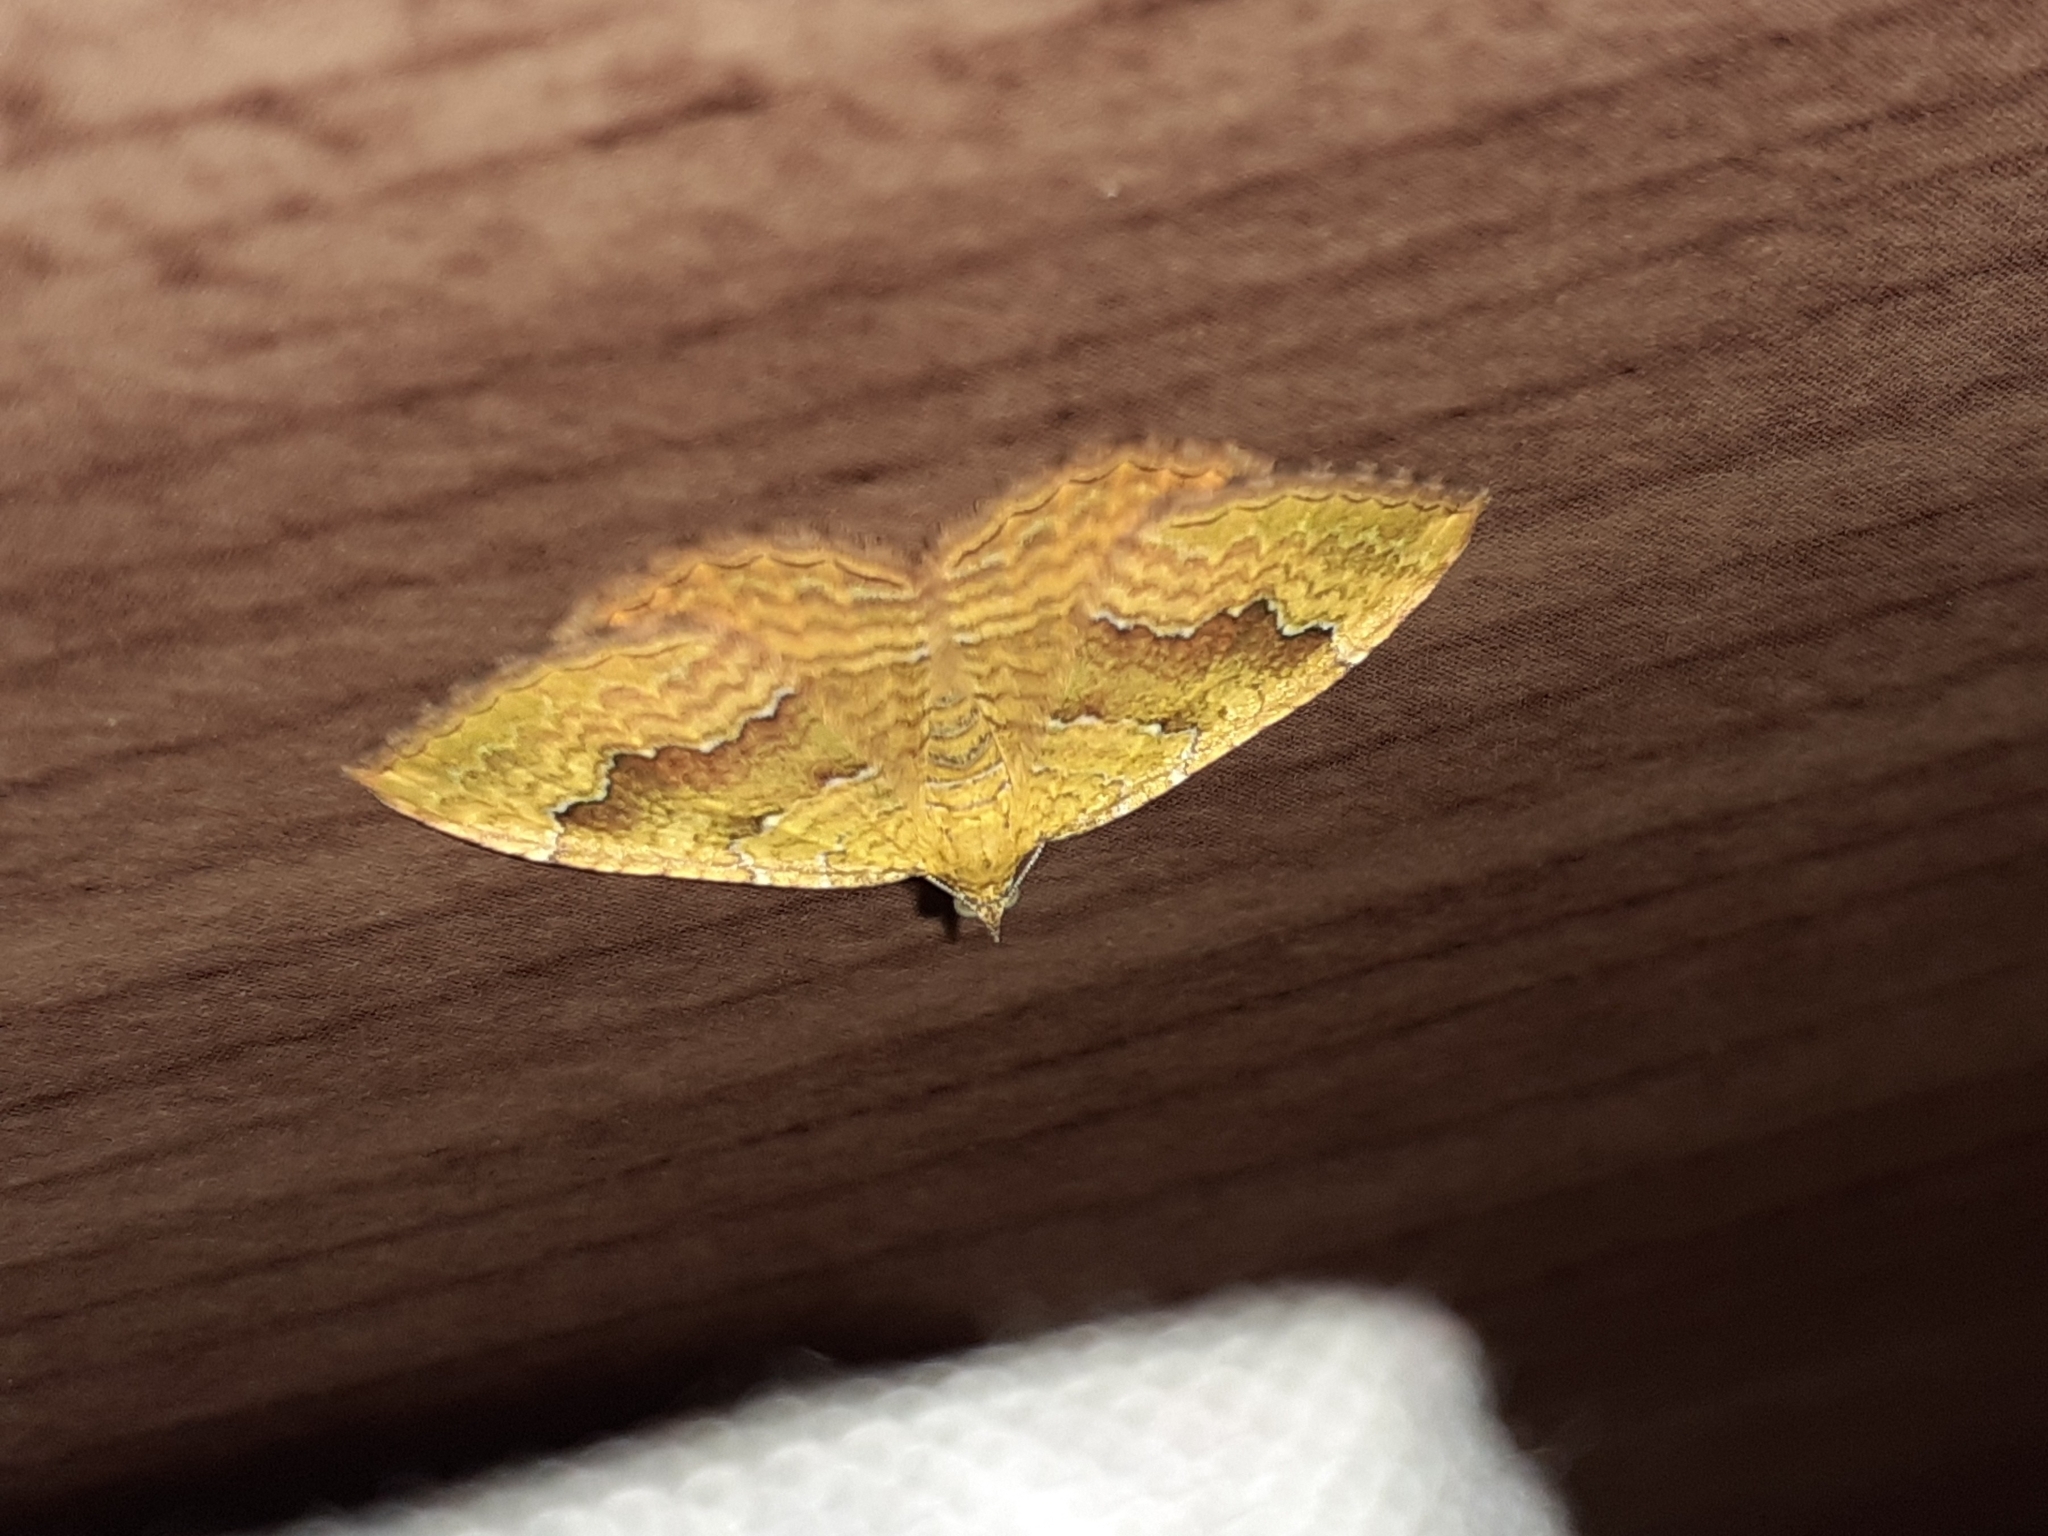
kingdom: Animalia
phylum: Arthropoda
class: Insecta
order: Lepidoptera
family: Geometridae
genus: Camptogramma
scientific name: Camptogramma bilineata
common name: Yellow shell
